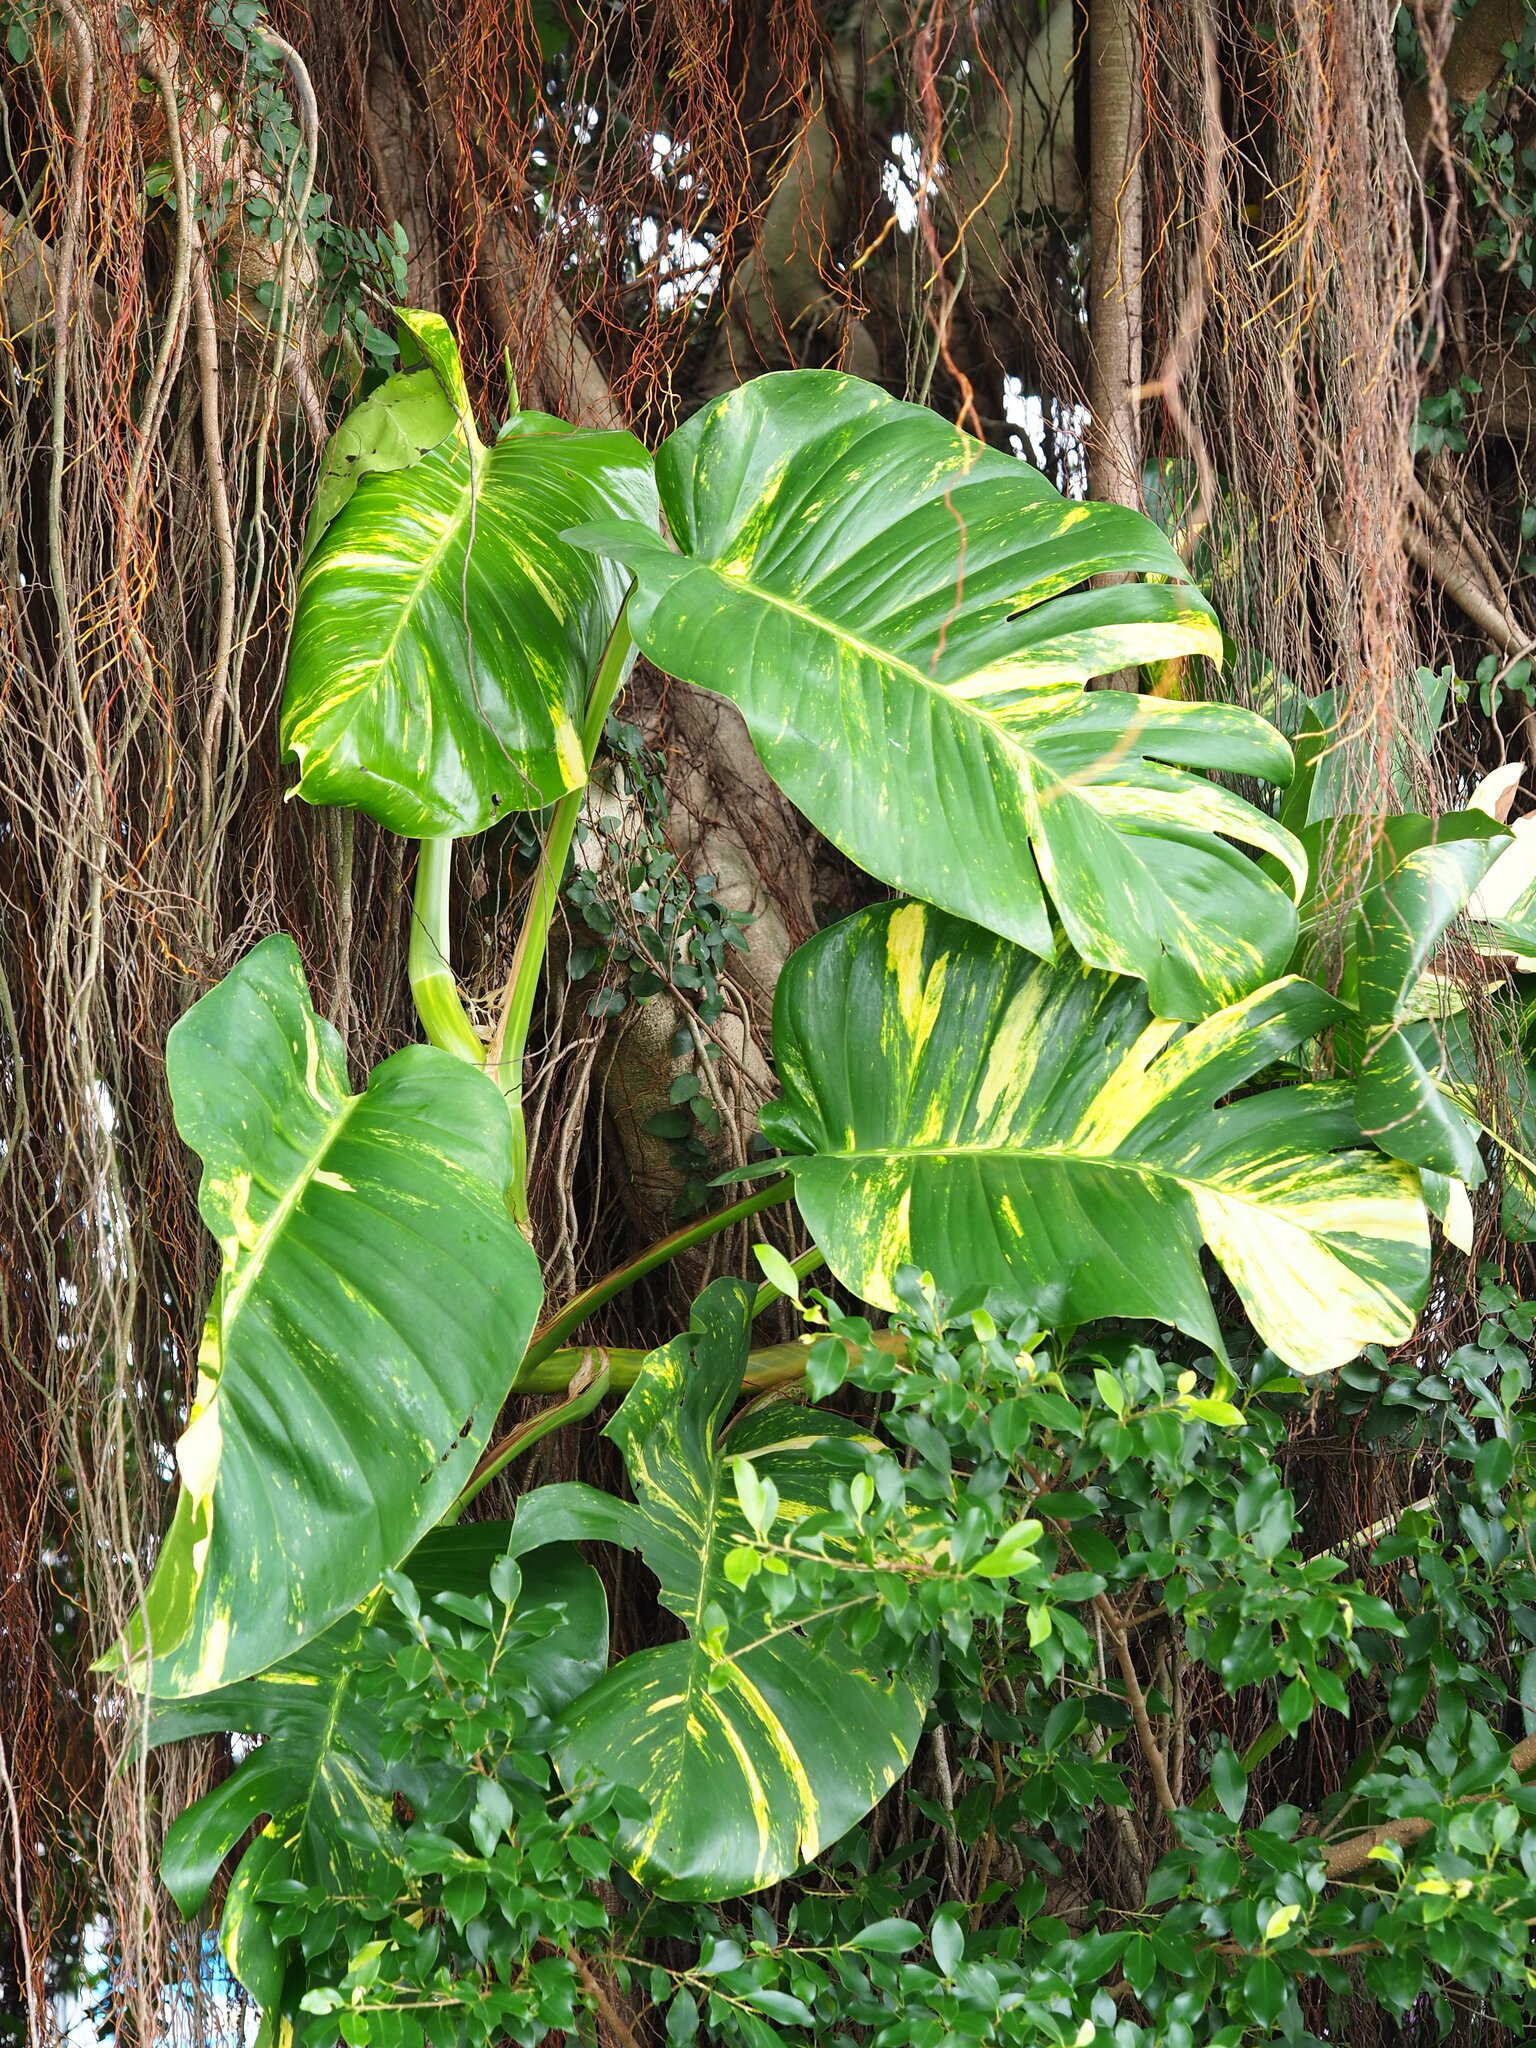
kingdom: Plantae
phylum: Tracheophyta
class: Liliopsida
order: Alismatales
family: Araceae
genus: Epipremnum
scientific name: Epipremnum aureum
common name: Golden hunter's-robe
